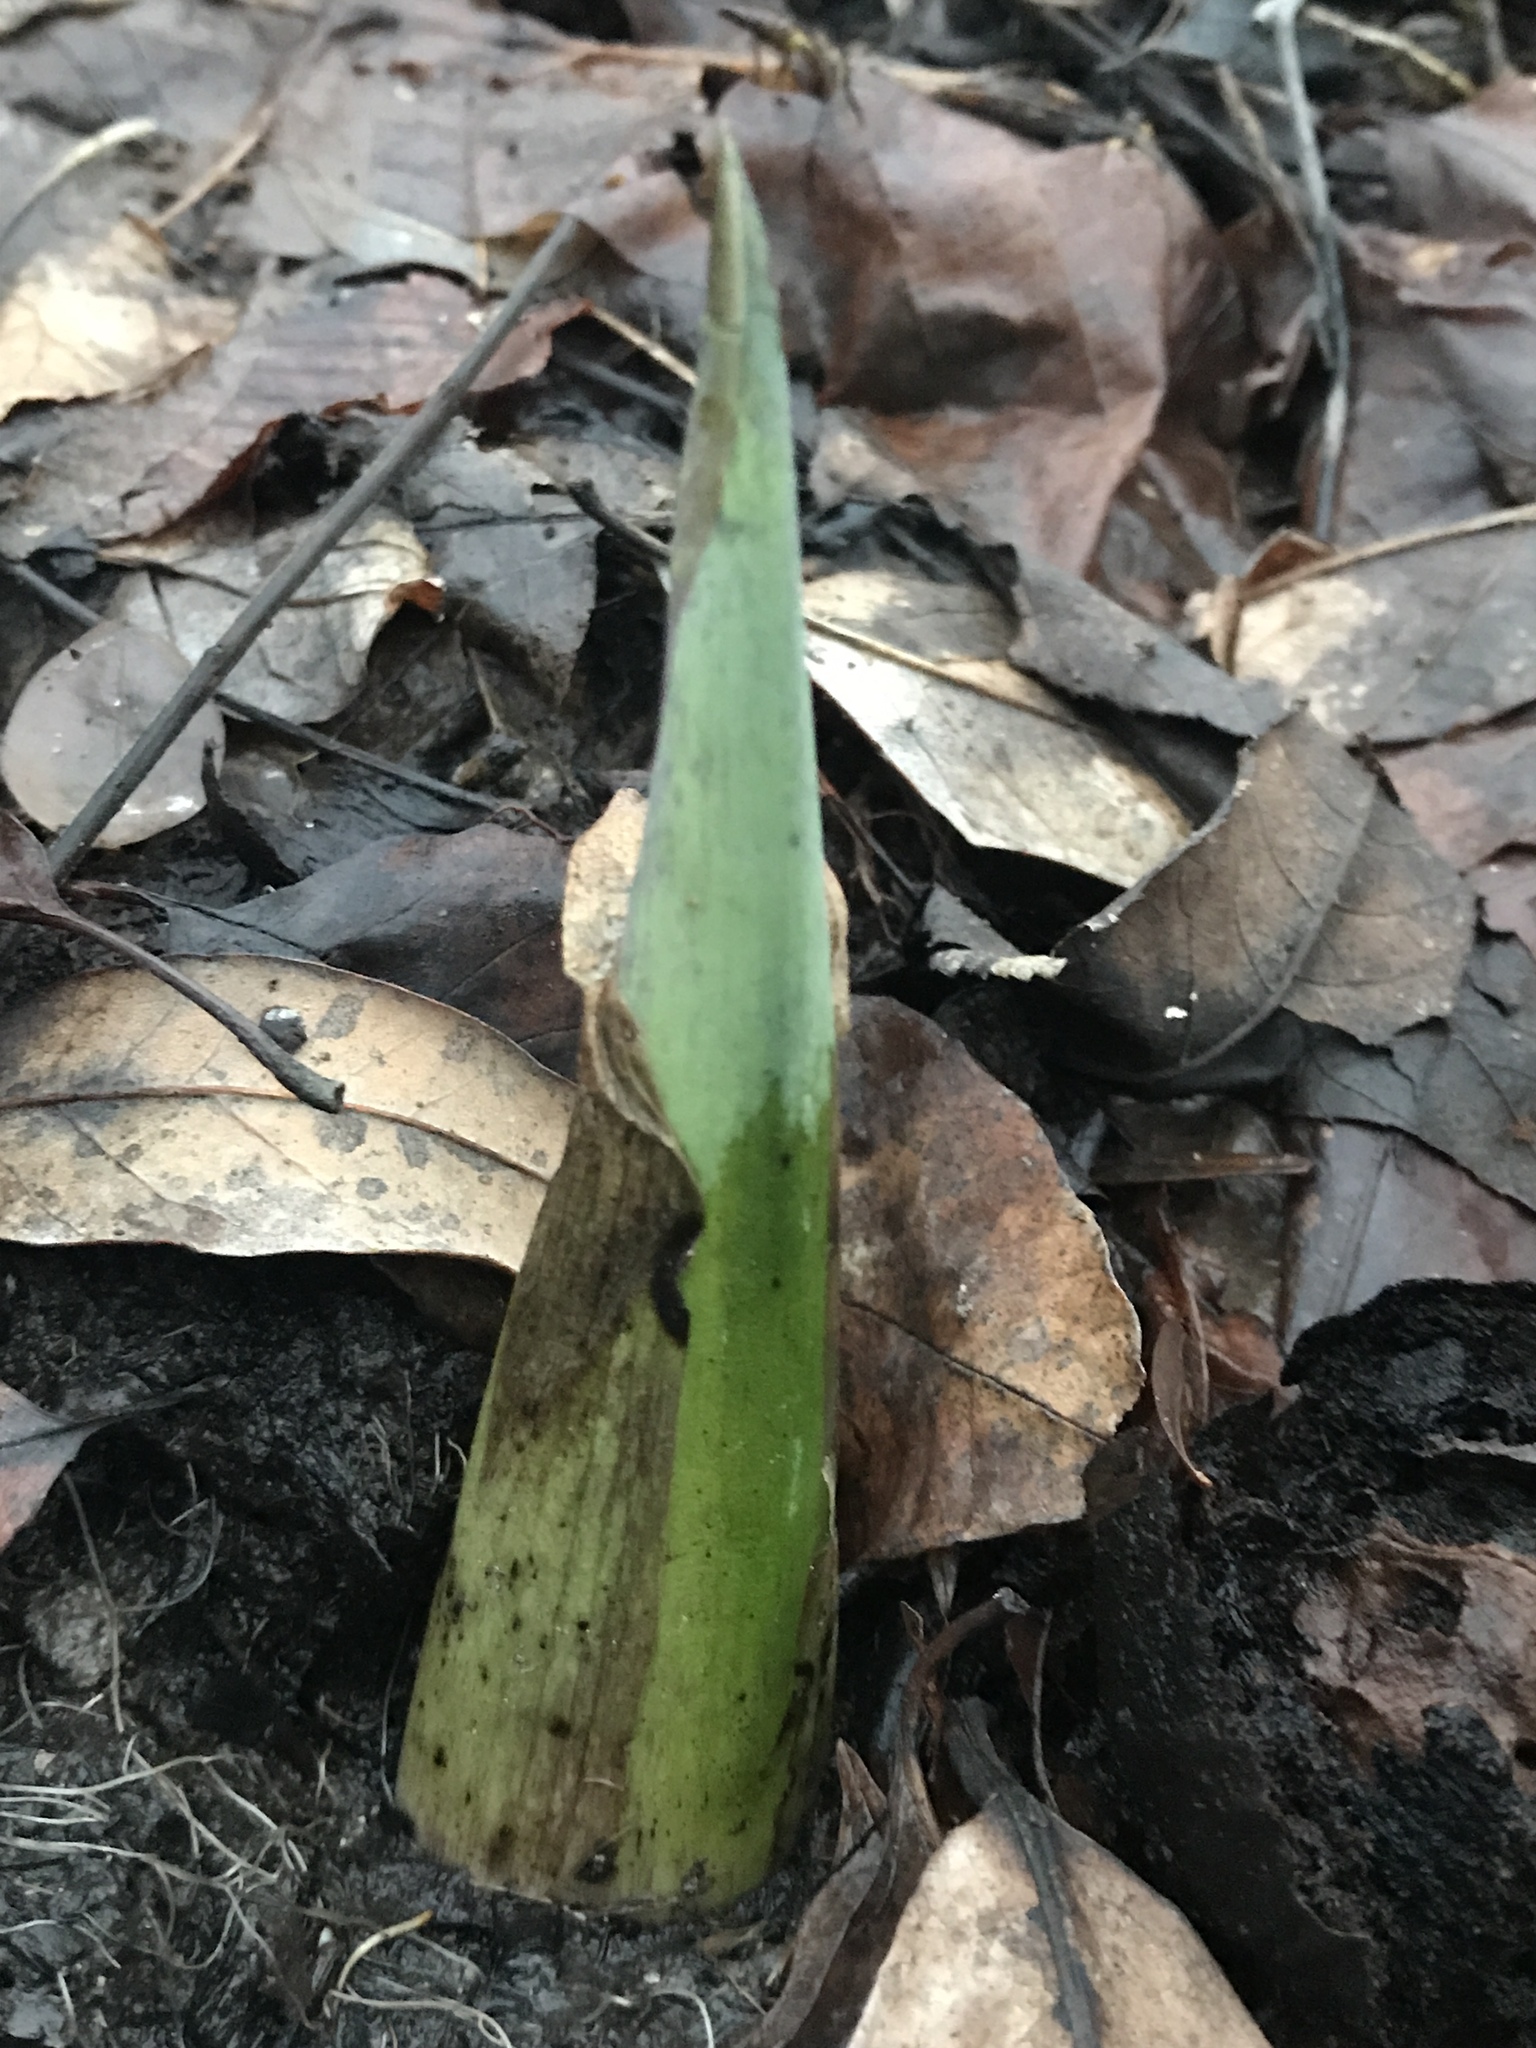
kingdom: Plantae
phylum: Tracheophyta
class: Liliopsida
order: Alismatales
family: Araceae
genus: Symplocarpus
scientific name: Symplocarpus foetidus
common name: Eastern skunk cabbage
